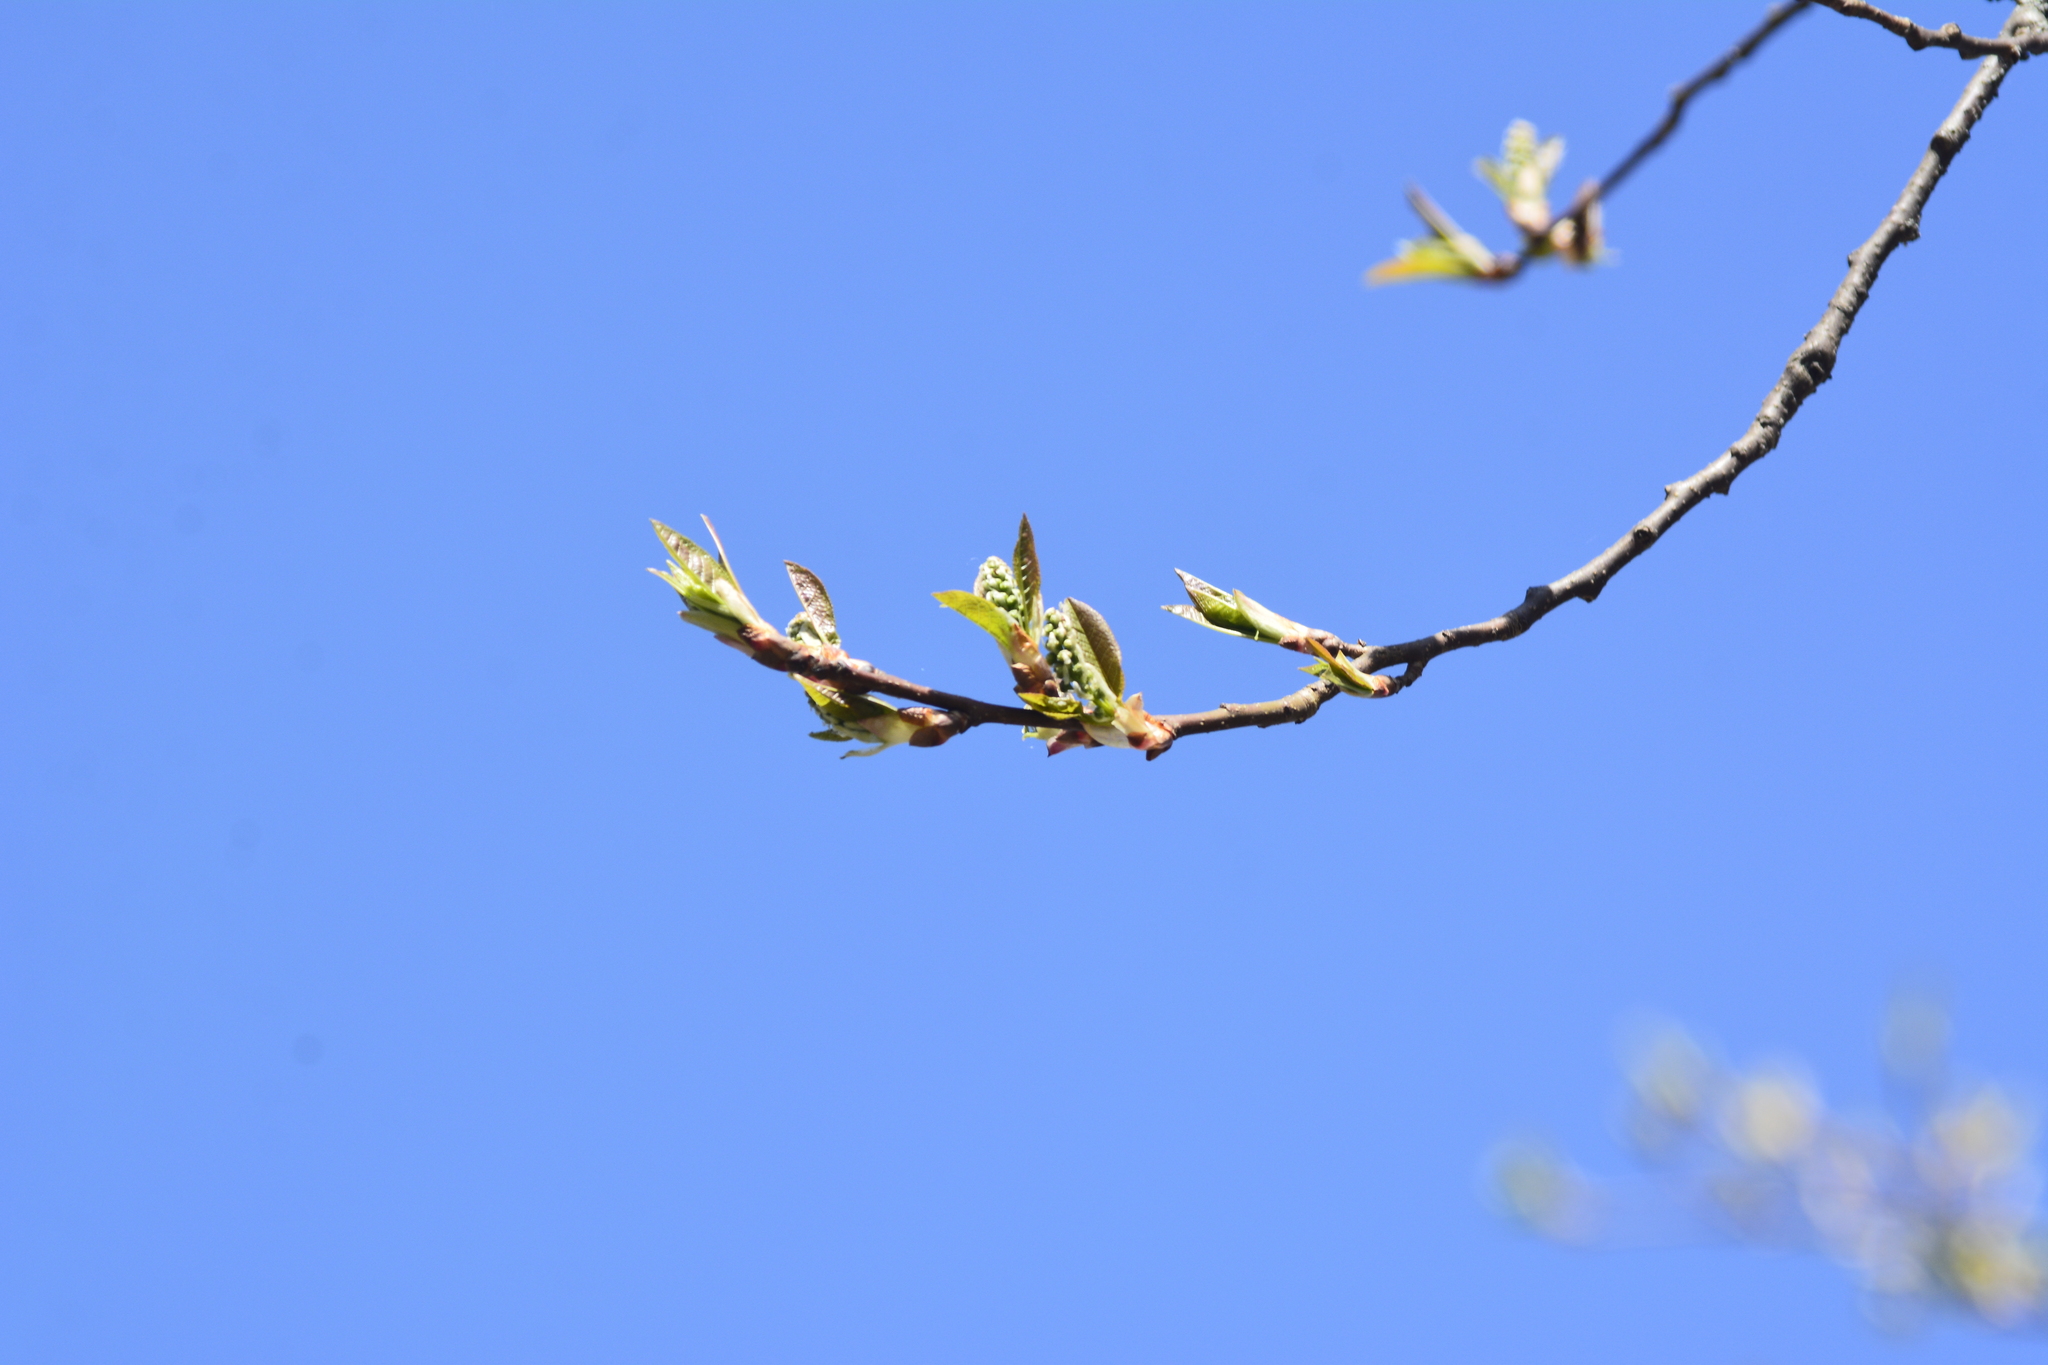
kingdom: Plantae
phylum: Tracheophyta
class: Magnoliopsida
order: Rosales
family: Rosaceae
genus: Prunus
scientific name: Prunus padus
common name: Bird cherry
